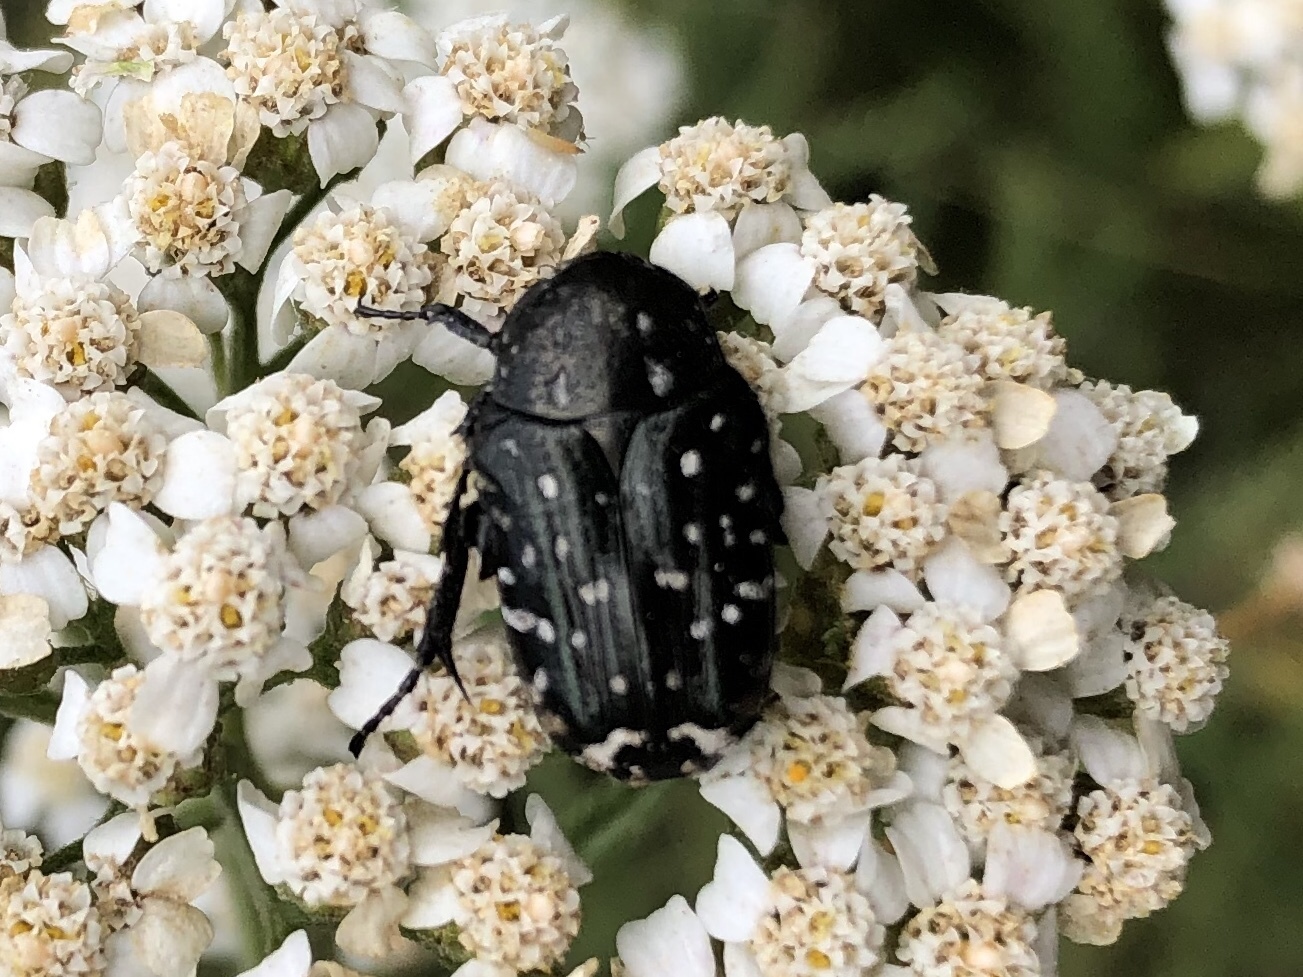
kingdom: Animalia
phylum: Arthropoda
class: Insecta
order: Coleoptera
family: Scarabaeidae
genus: Oxythyrea
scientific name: Oxythyrea funesta
